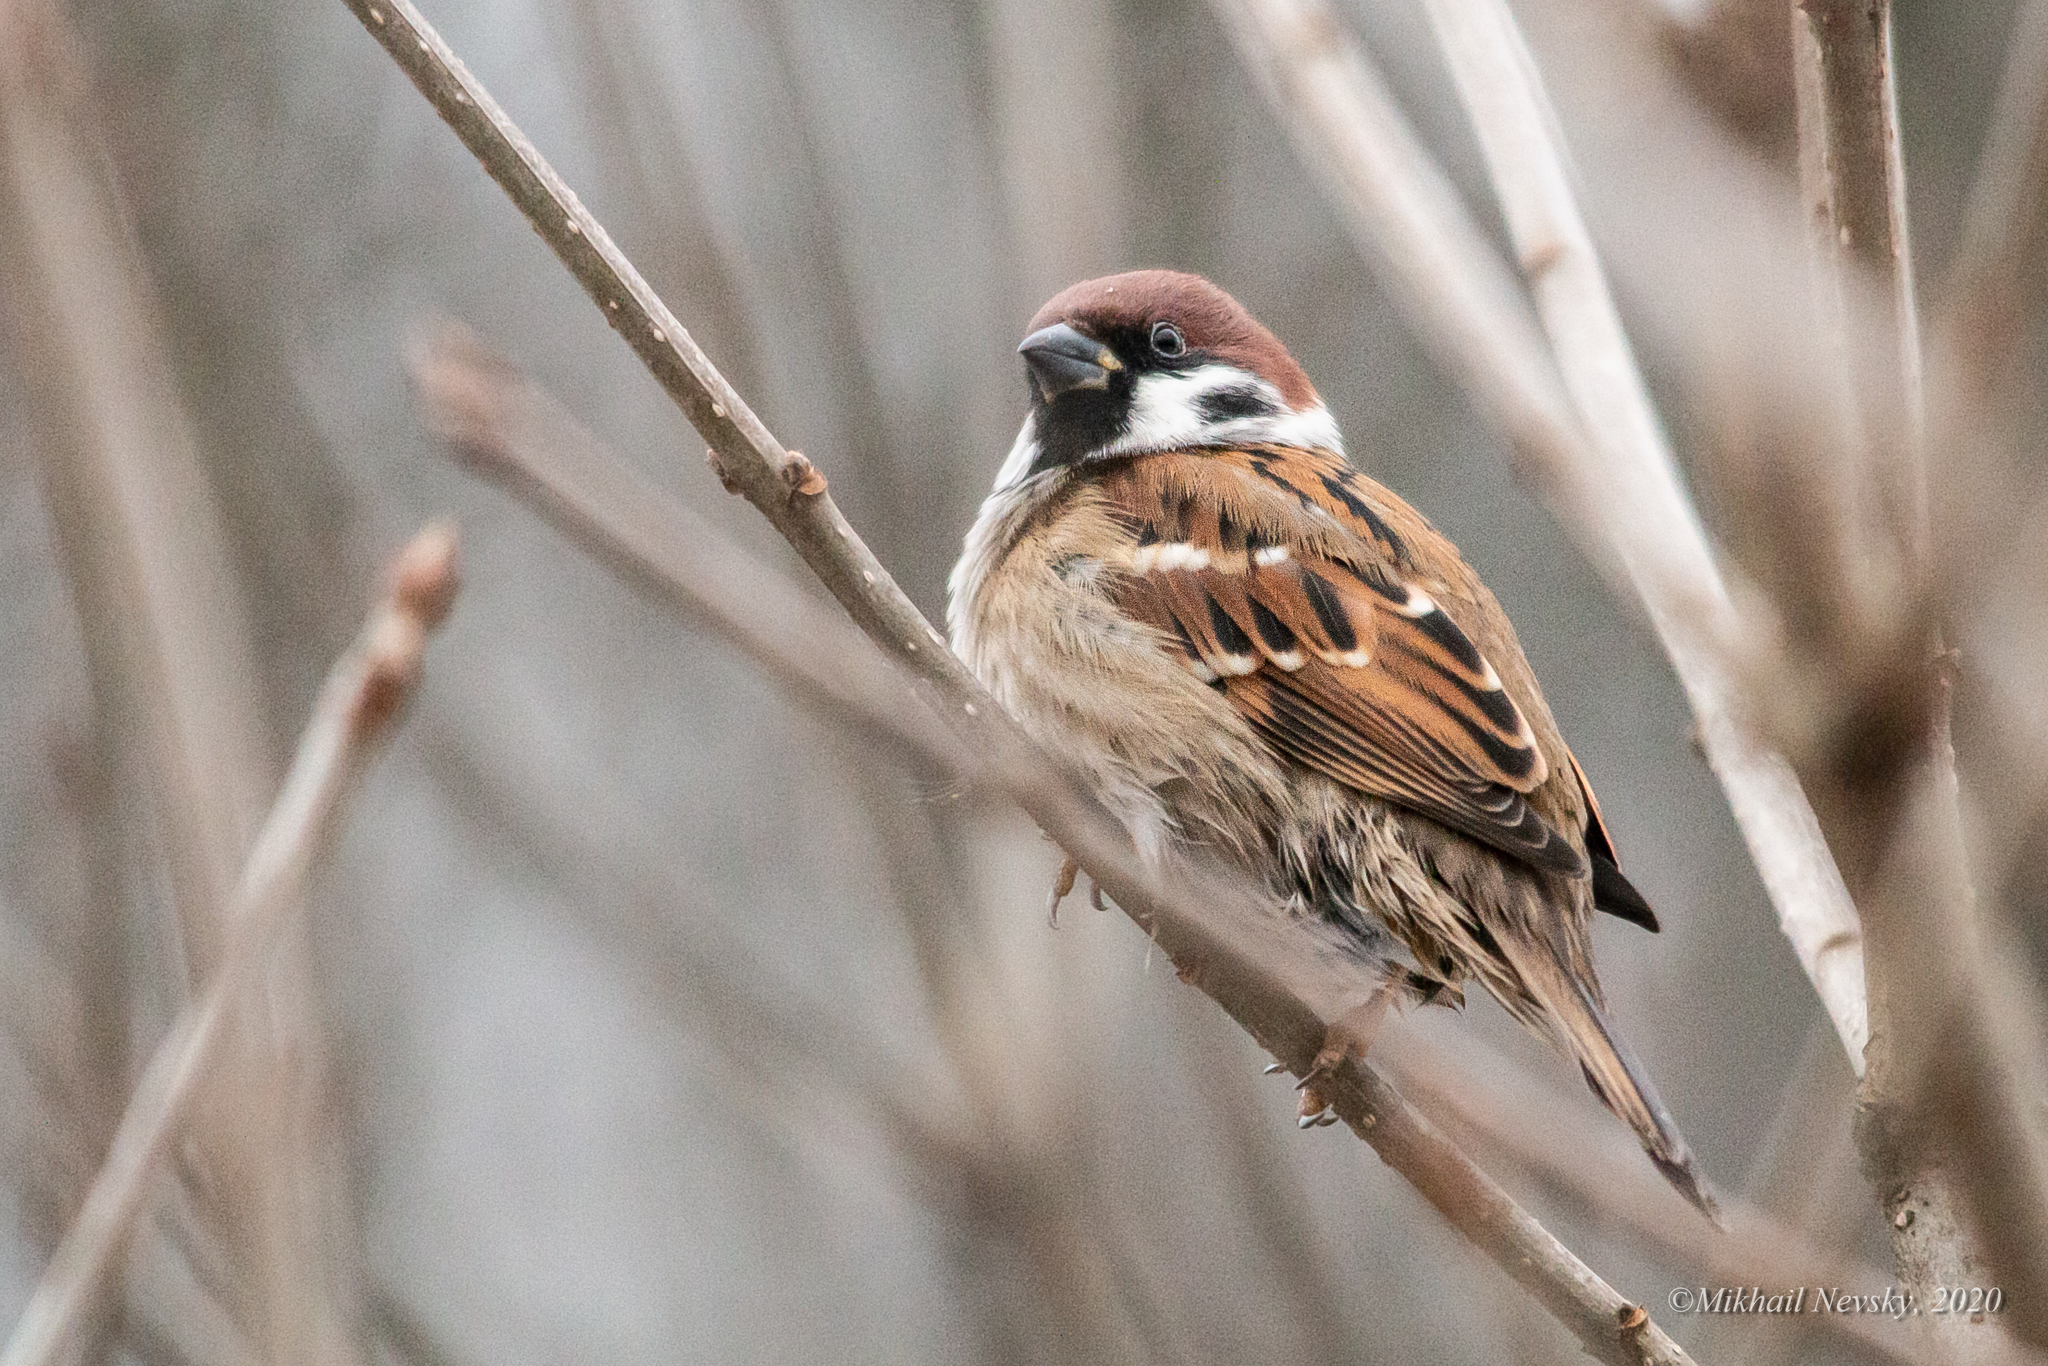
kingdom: Animalia
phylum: Chordata
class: Aves
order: Passeriformes
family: Passeridae
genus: Passer
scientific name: Passer montanus
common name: Eurasian tree sparrow
